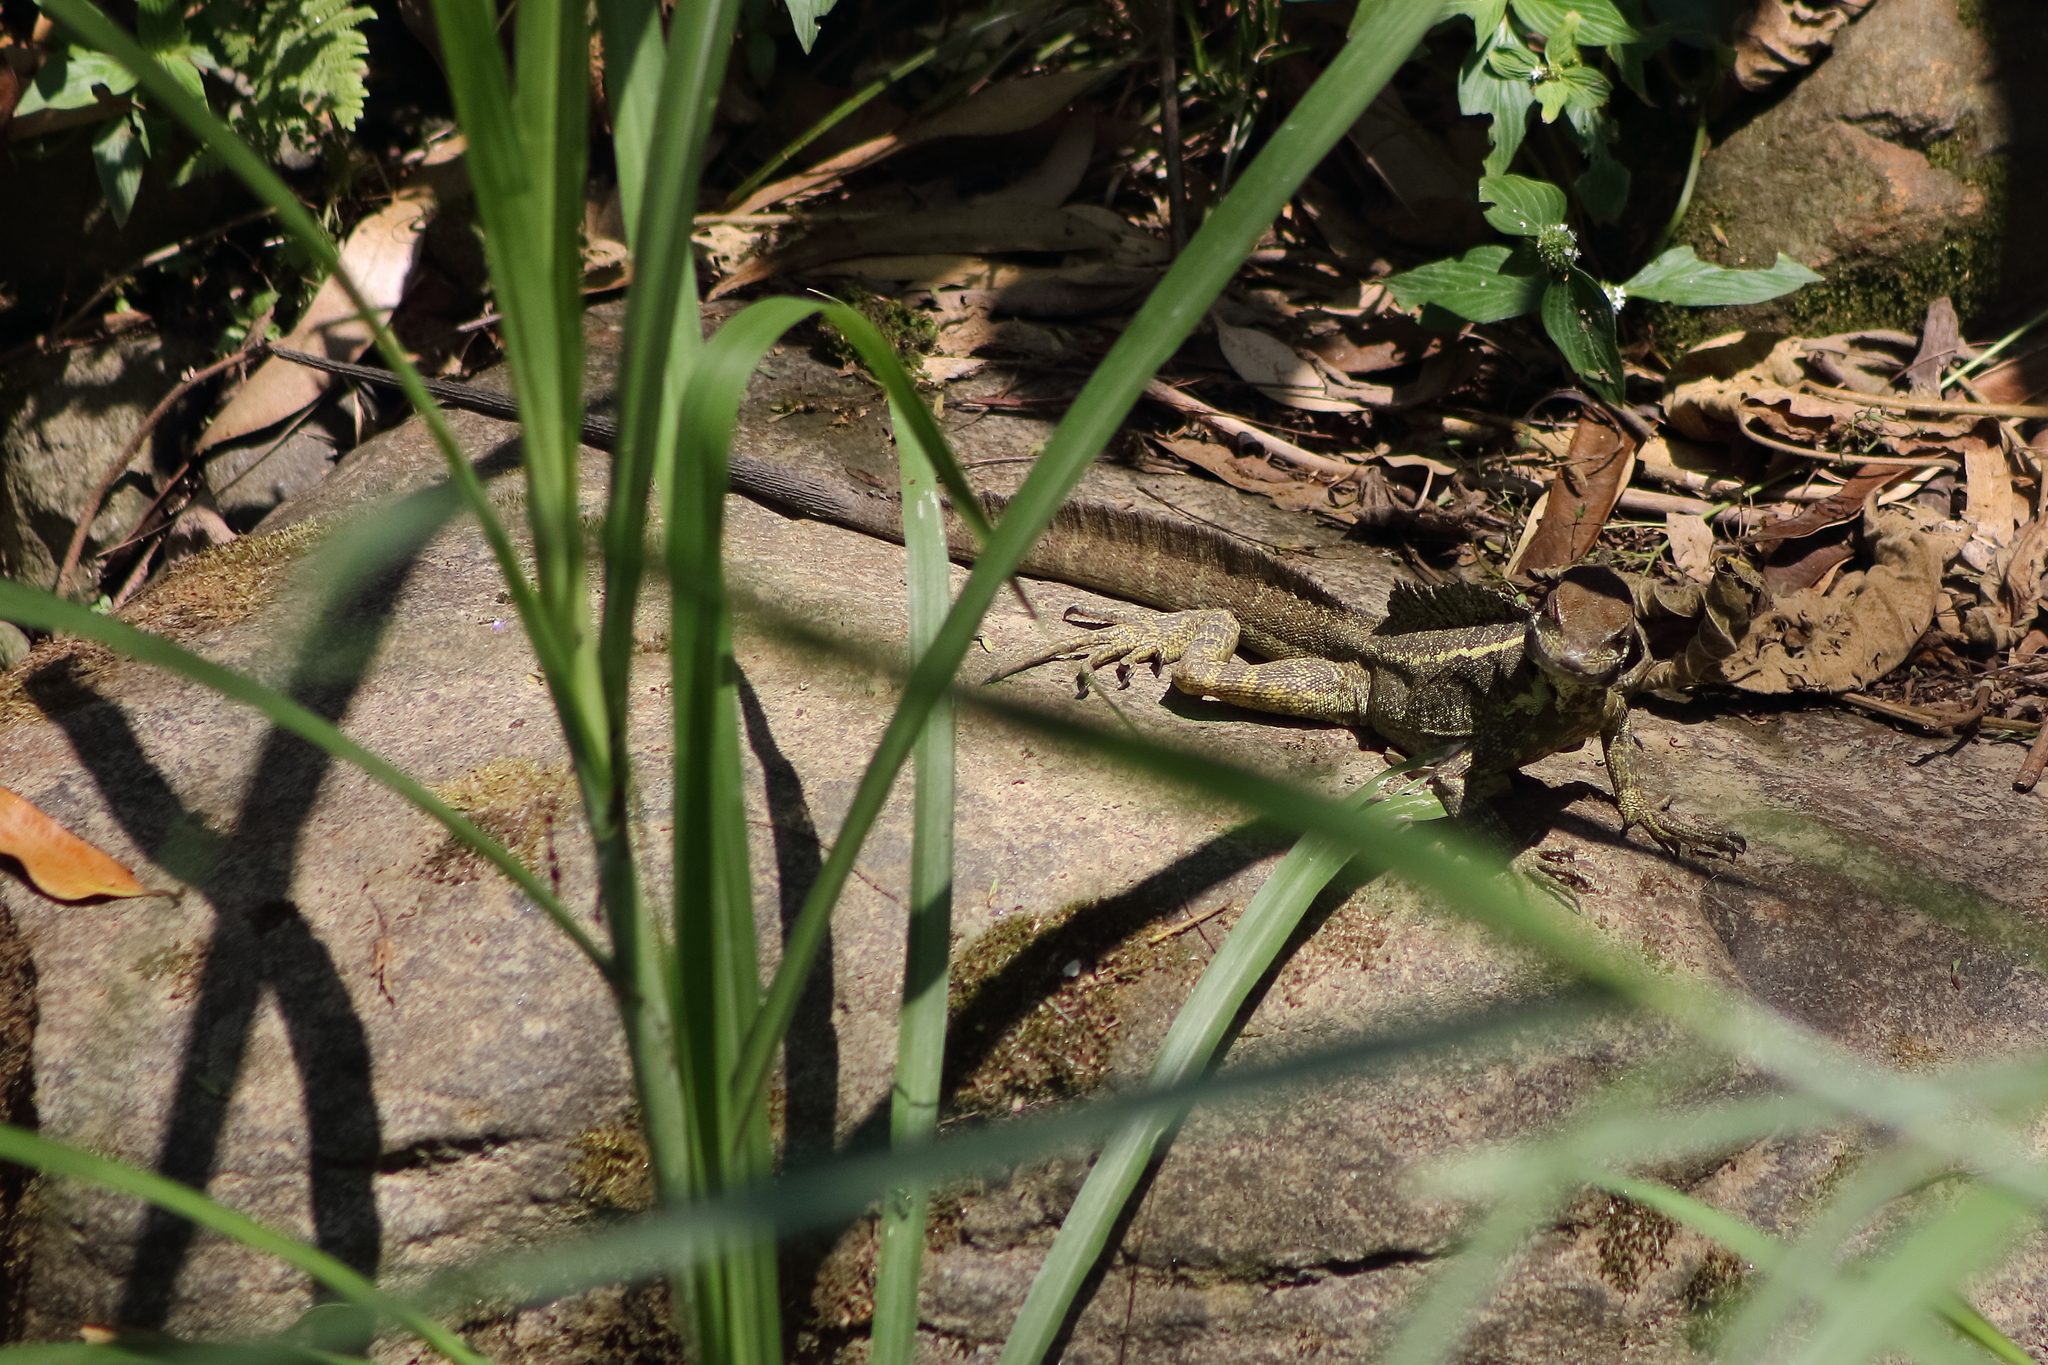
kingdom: Animalia
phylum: Chordata
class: Squamata
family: Corytophanidae
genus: Basiliscus
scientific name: Basiliscus basiliscus
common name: Common basilisk
